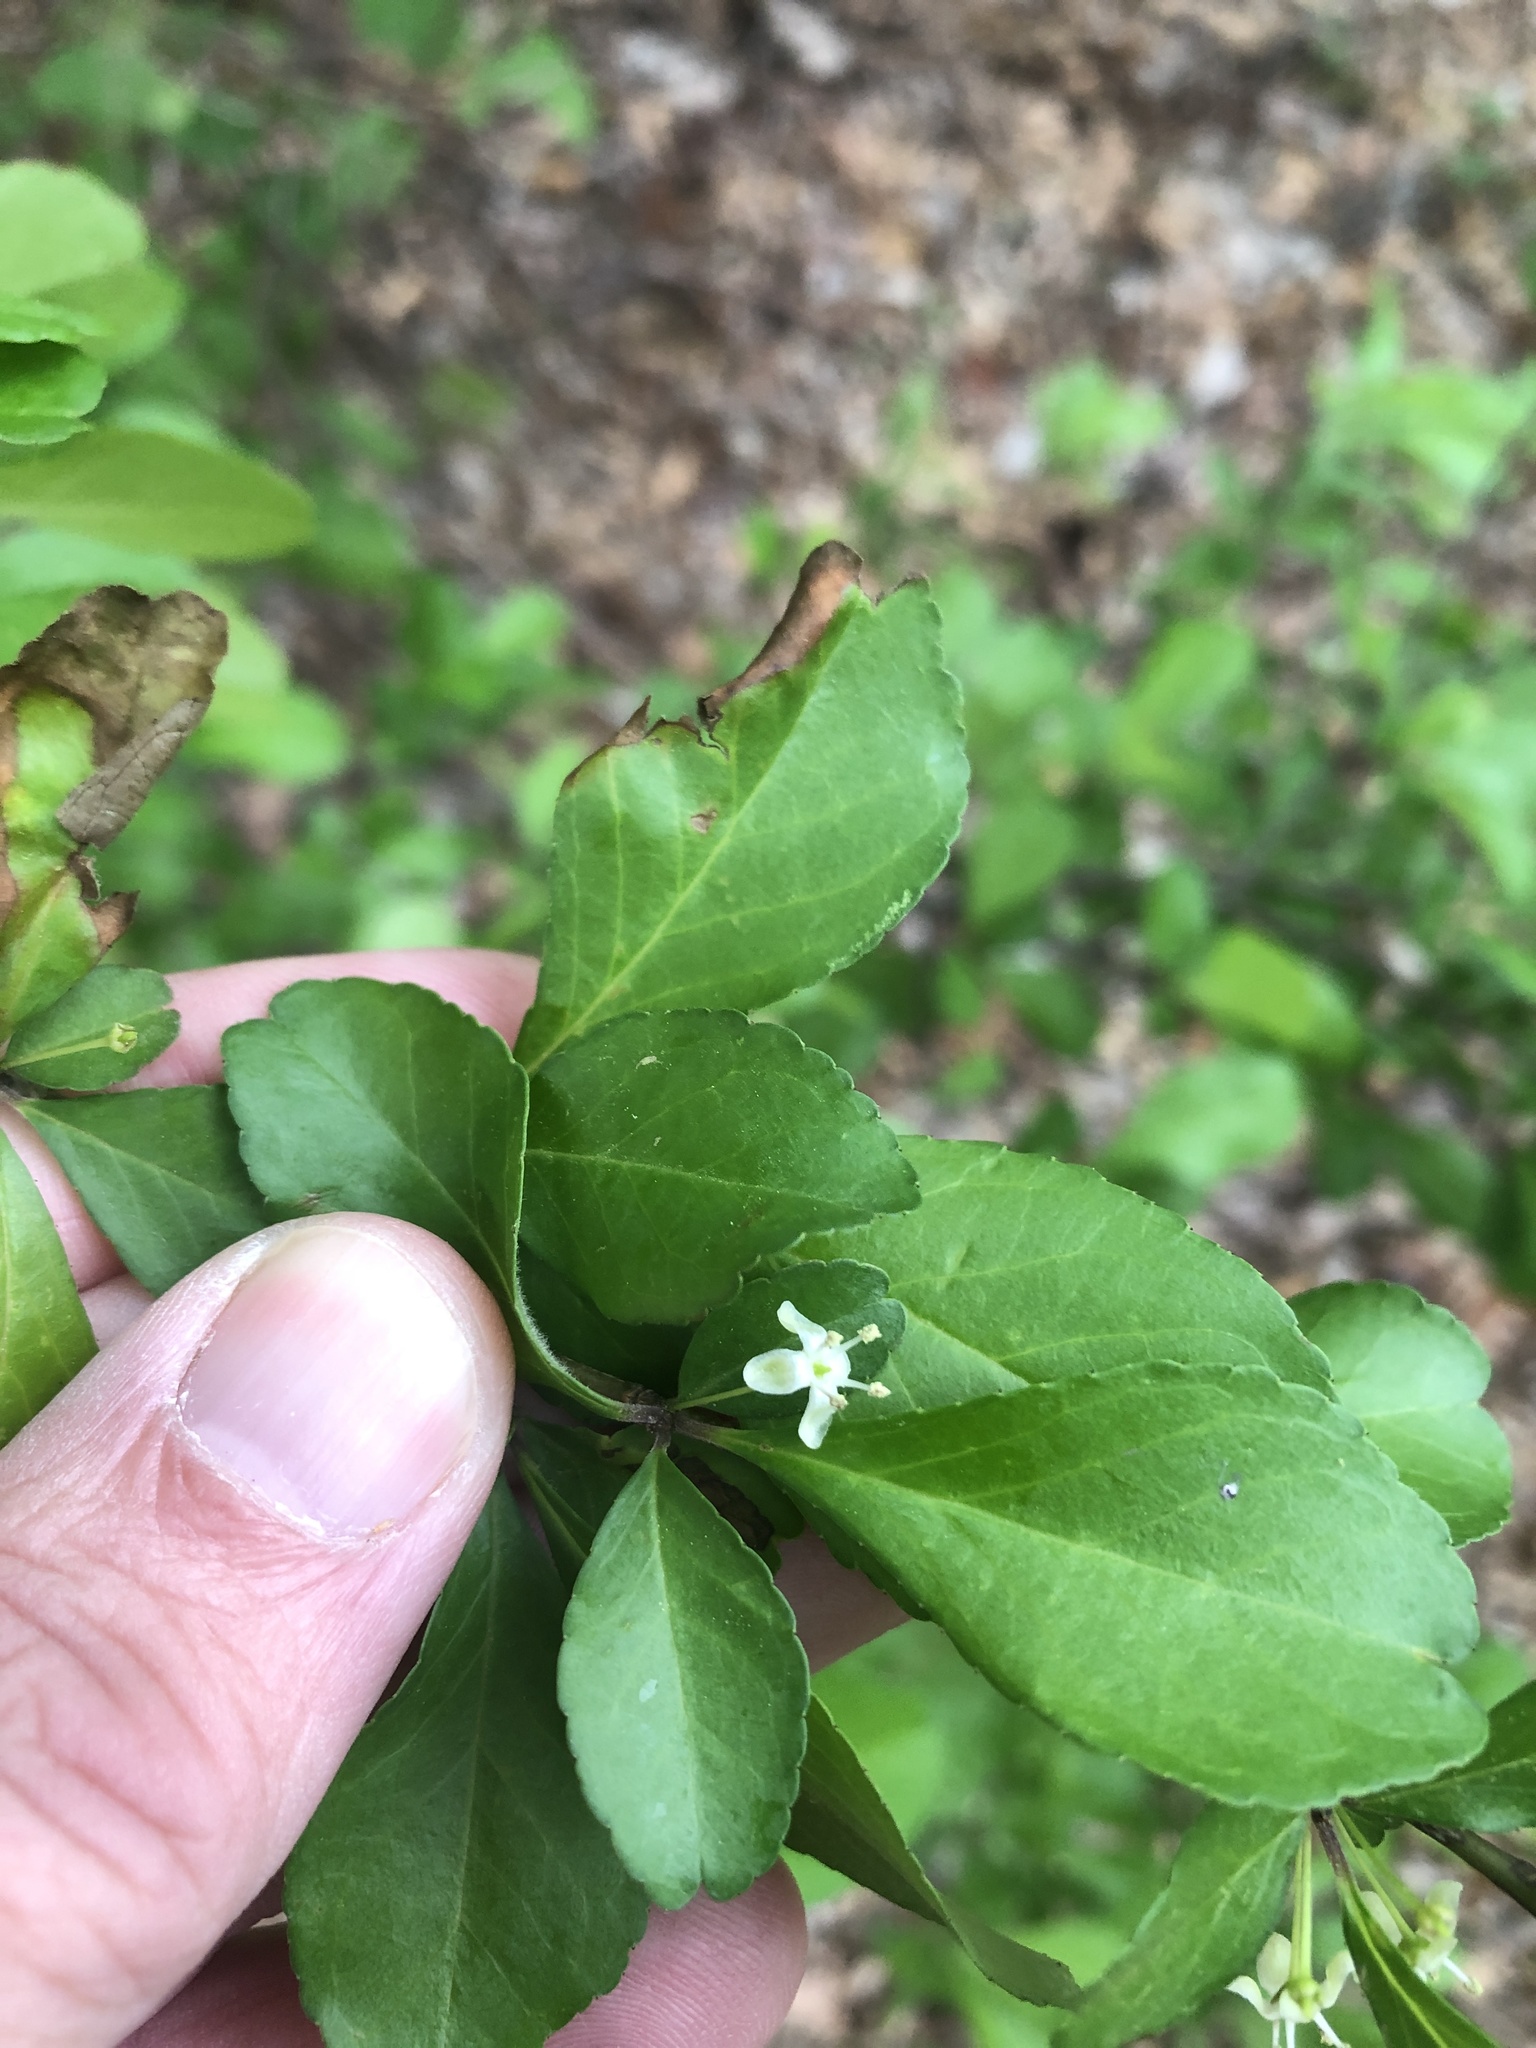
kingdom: Plantae
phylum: Tracheophyta
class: Magnoliopsida
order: Aquifoliales
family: Aquifoliaceae
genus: Ilex
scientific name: Ilex decidua
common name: Possum-haw
